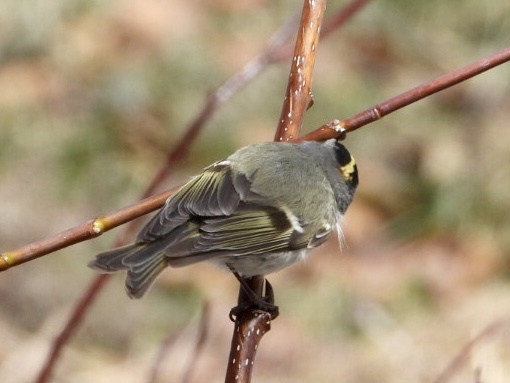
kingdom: Animalia
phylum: Chordata
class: Aves
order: Passeriformes
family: Regulidae
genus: Regulus
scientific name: Regulus satrapa
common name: Golden-crowned kinglet
